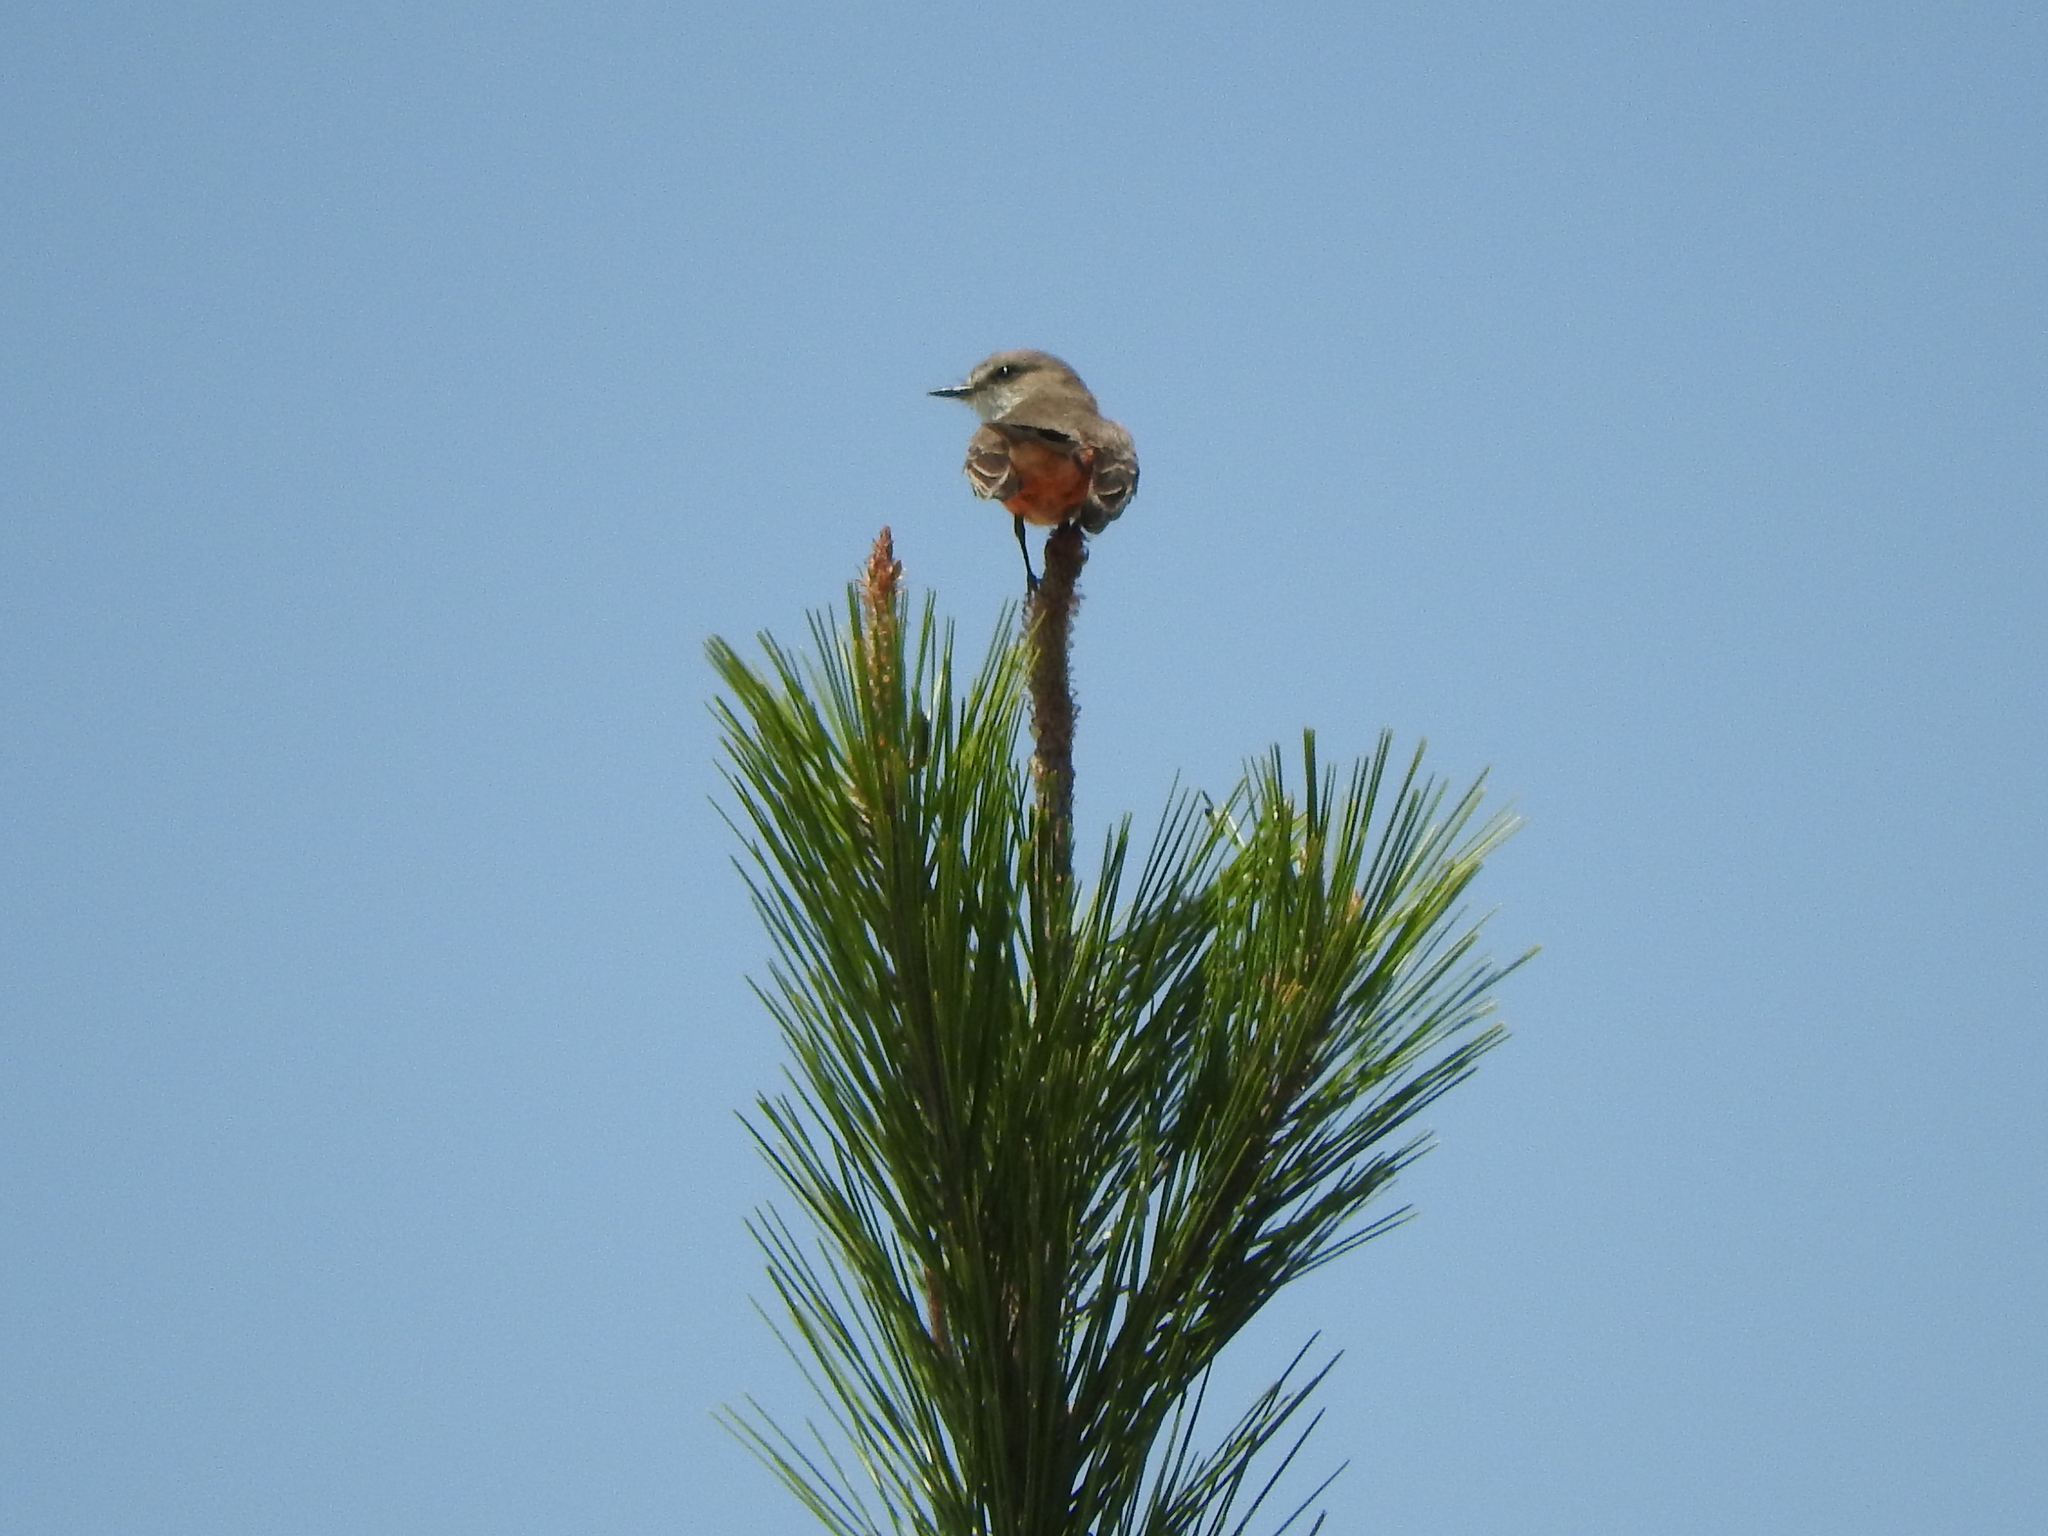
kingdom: Animalia
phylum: Chordata
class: Aves
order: Passeriformes
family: Tyrannidae
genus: Pyrocephalus
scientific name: Pyrocephalus rubinus
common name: Vermilion flycatcher
